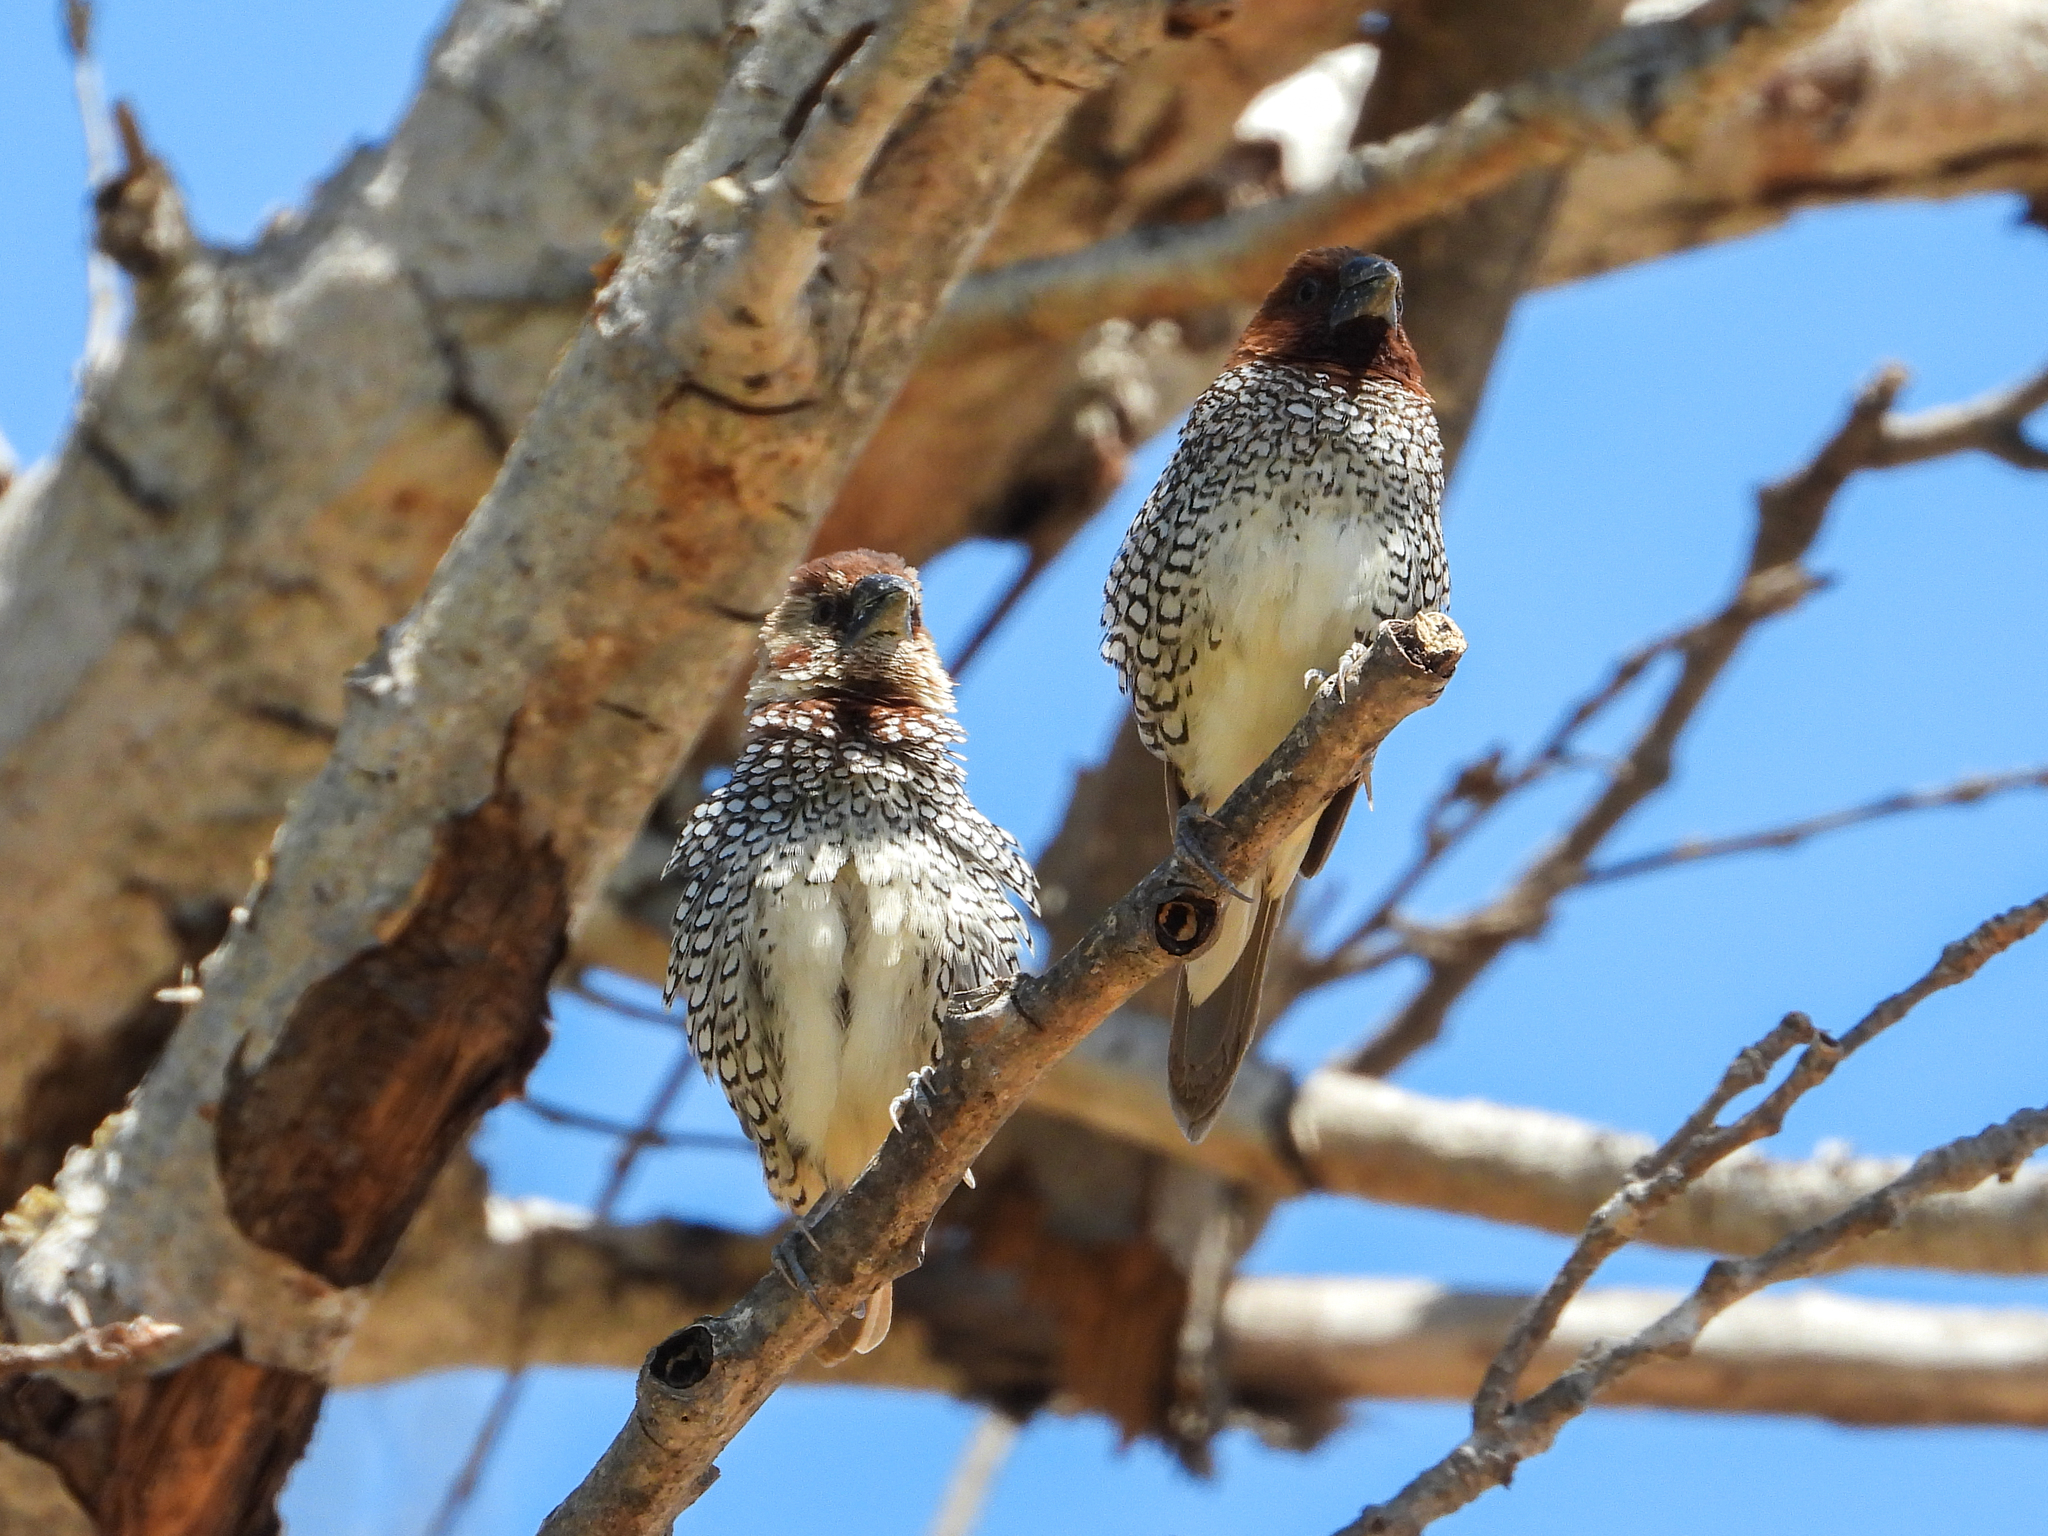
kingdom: Animalia
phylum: Chordata
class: Aves
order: Passeriformes
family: Estrildidae
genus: Lonchura
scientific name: Lonchura punctulata
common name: Scaly-breasted munia
